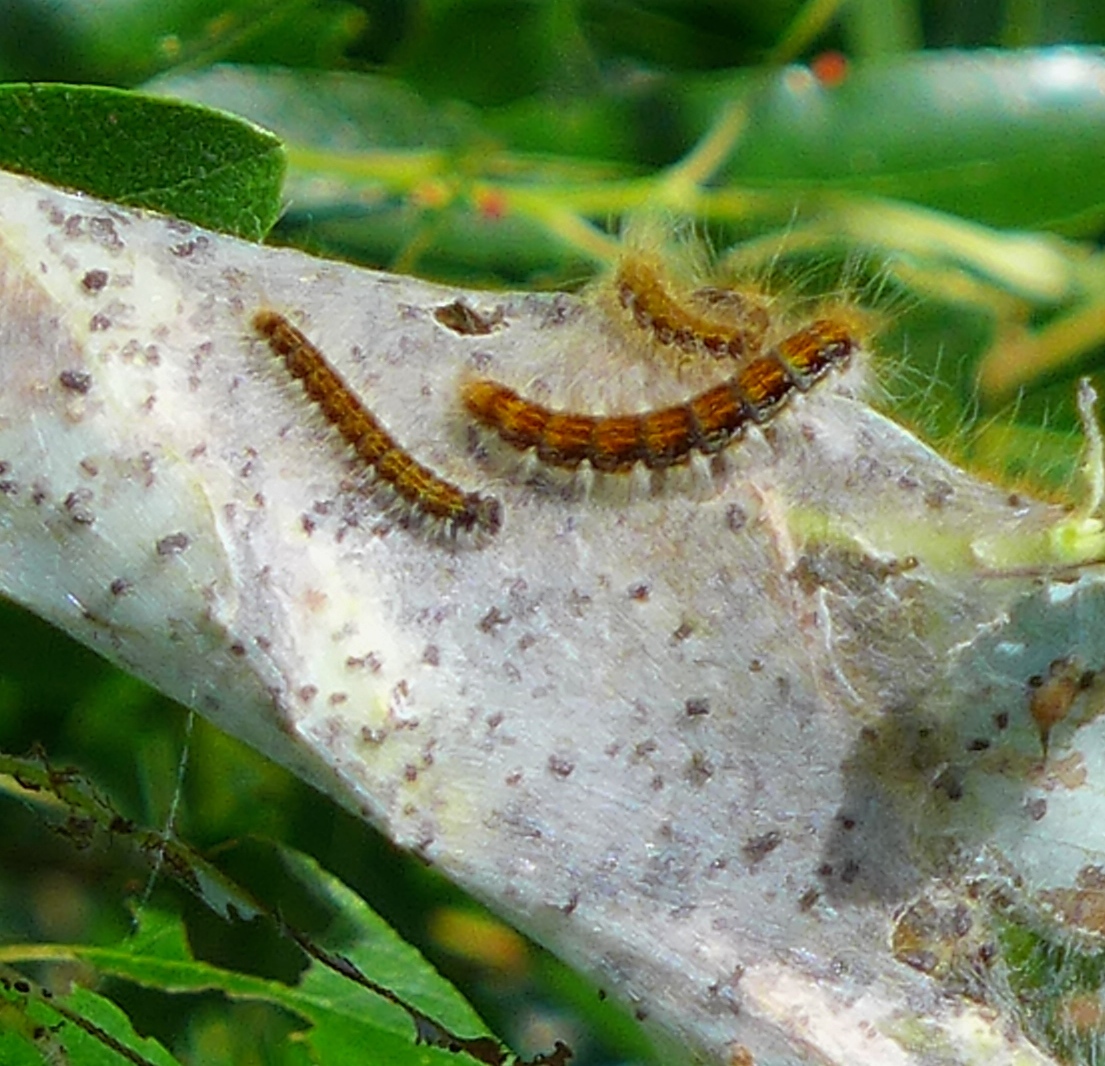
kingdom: Animalia
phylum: Arthropoda
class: Insecta
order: Lepidoptera
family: Lasiocampidae
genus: Malacosoma
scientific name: Malacosoma californica
